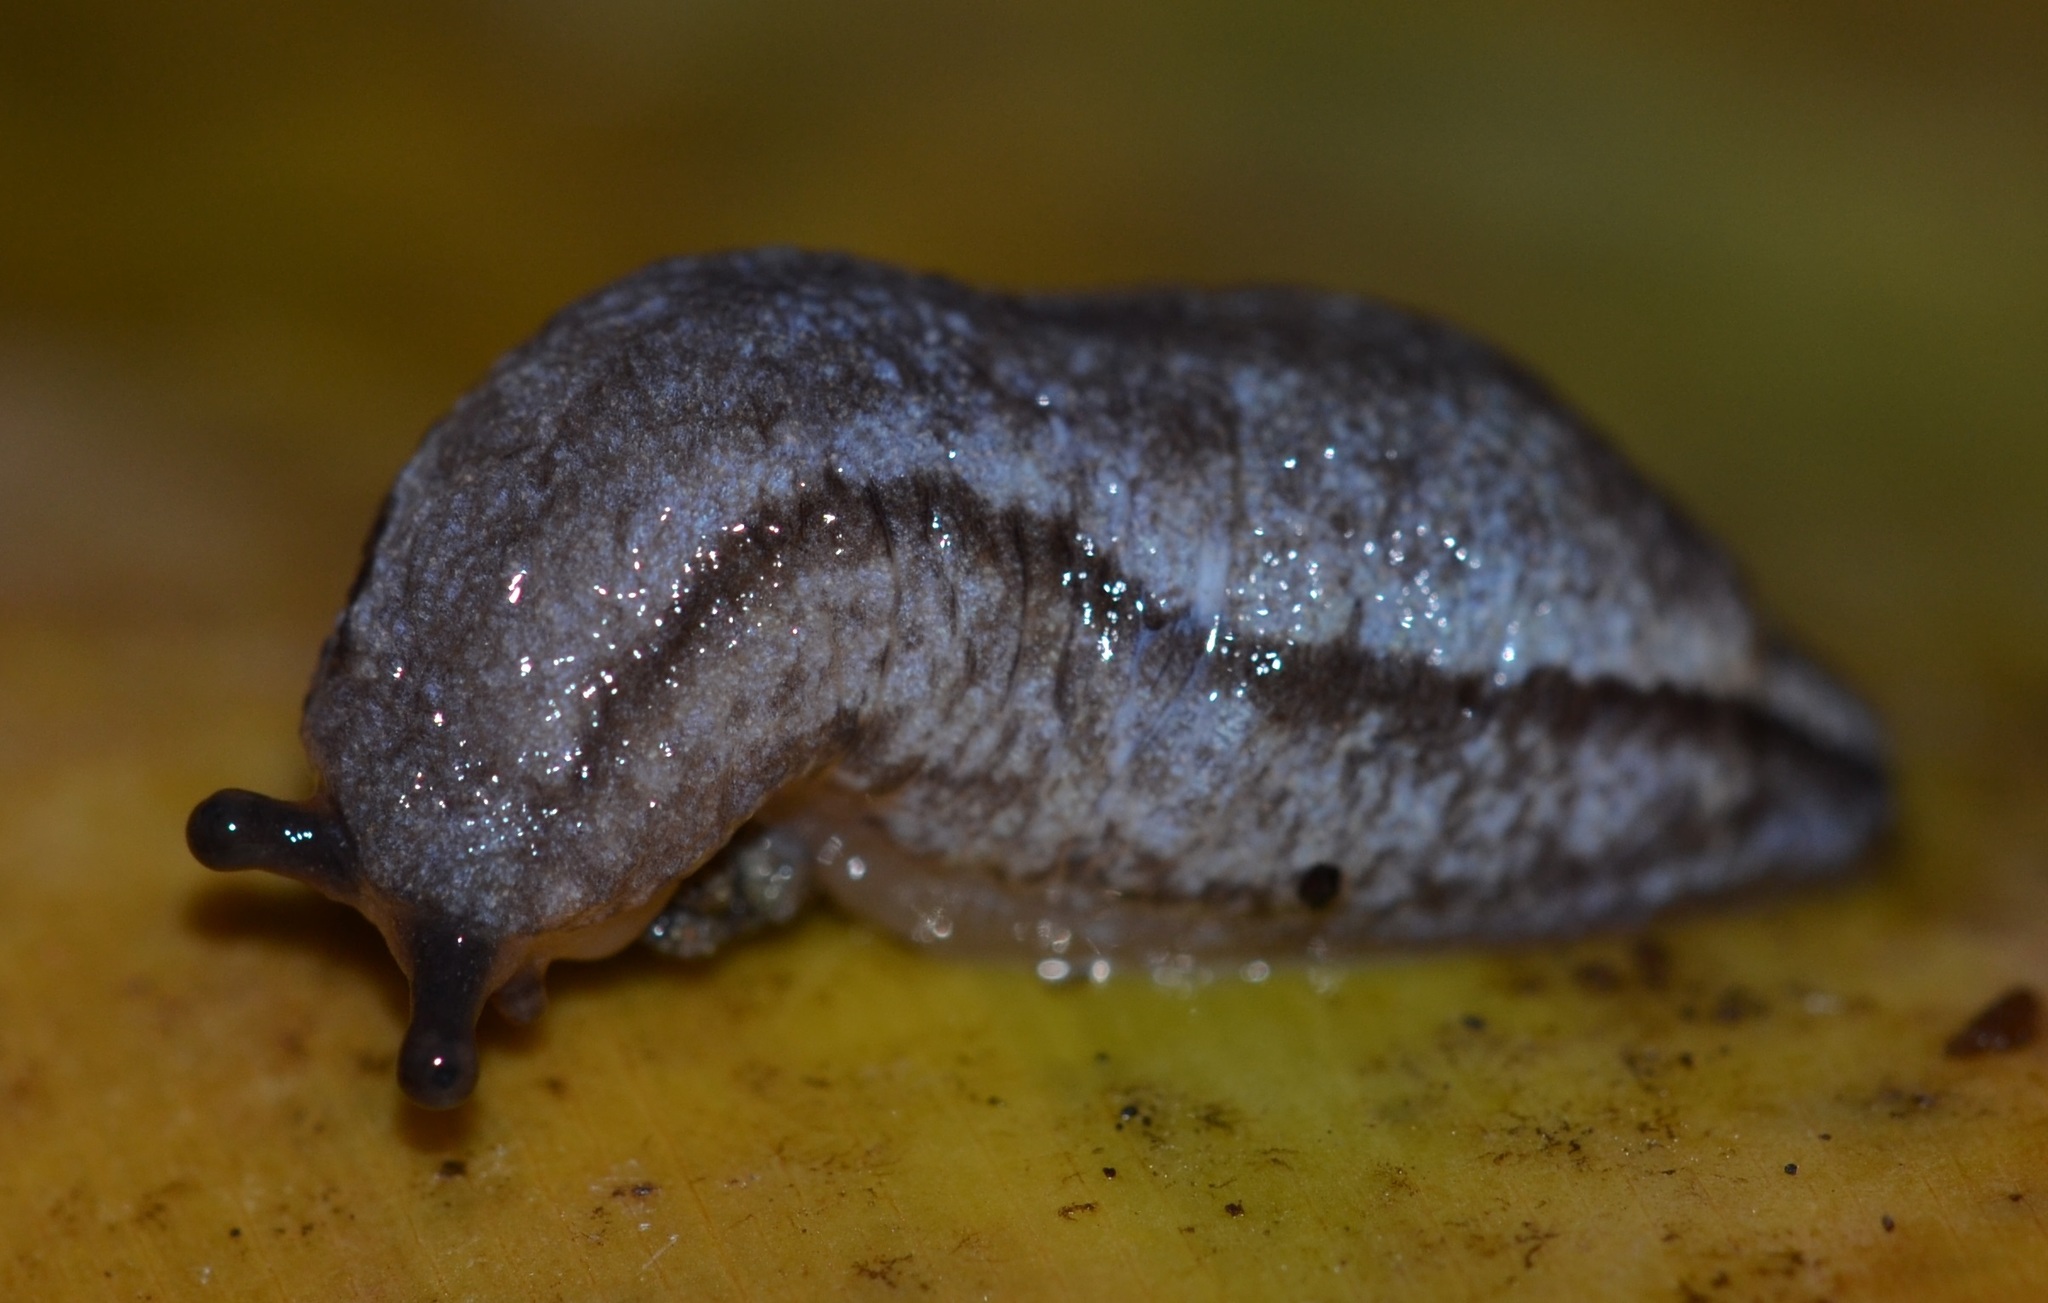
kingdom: Animalia
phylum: Mollusca
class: Gastropoda
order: Stylommatophora
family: Philomycidae
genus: Meghimatium
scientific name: Meghimatium bilineatum
